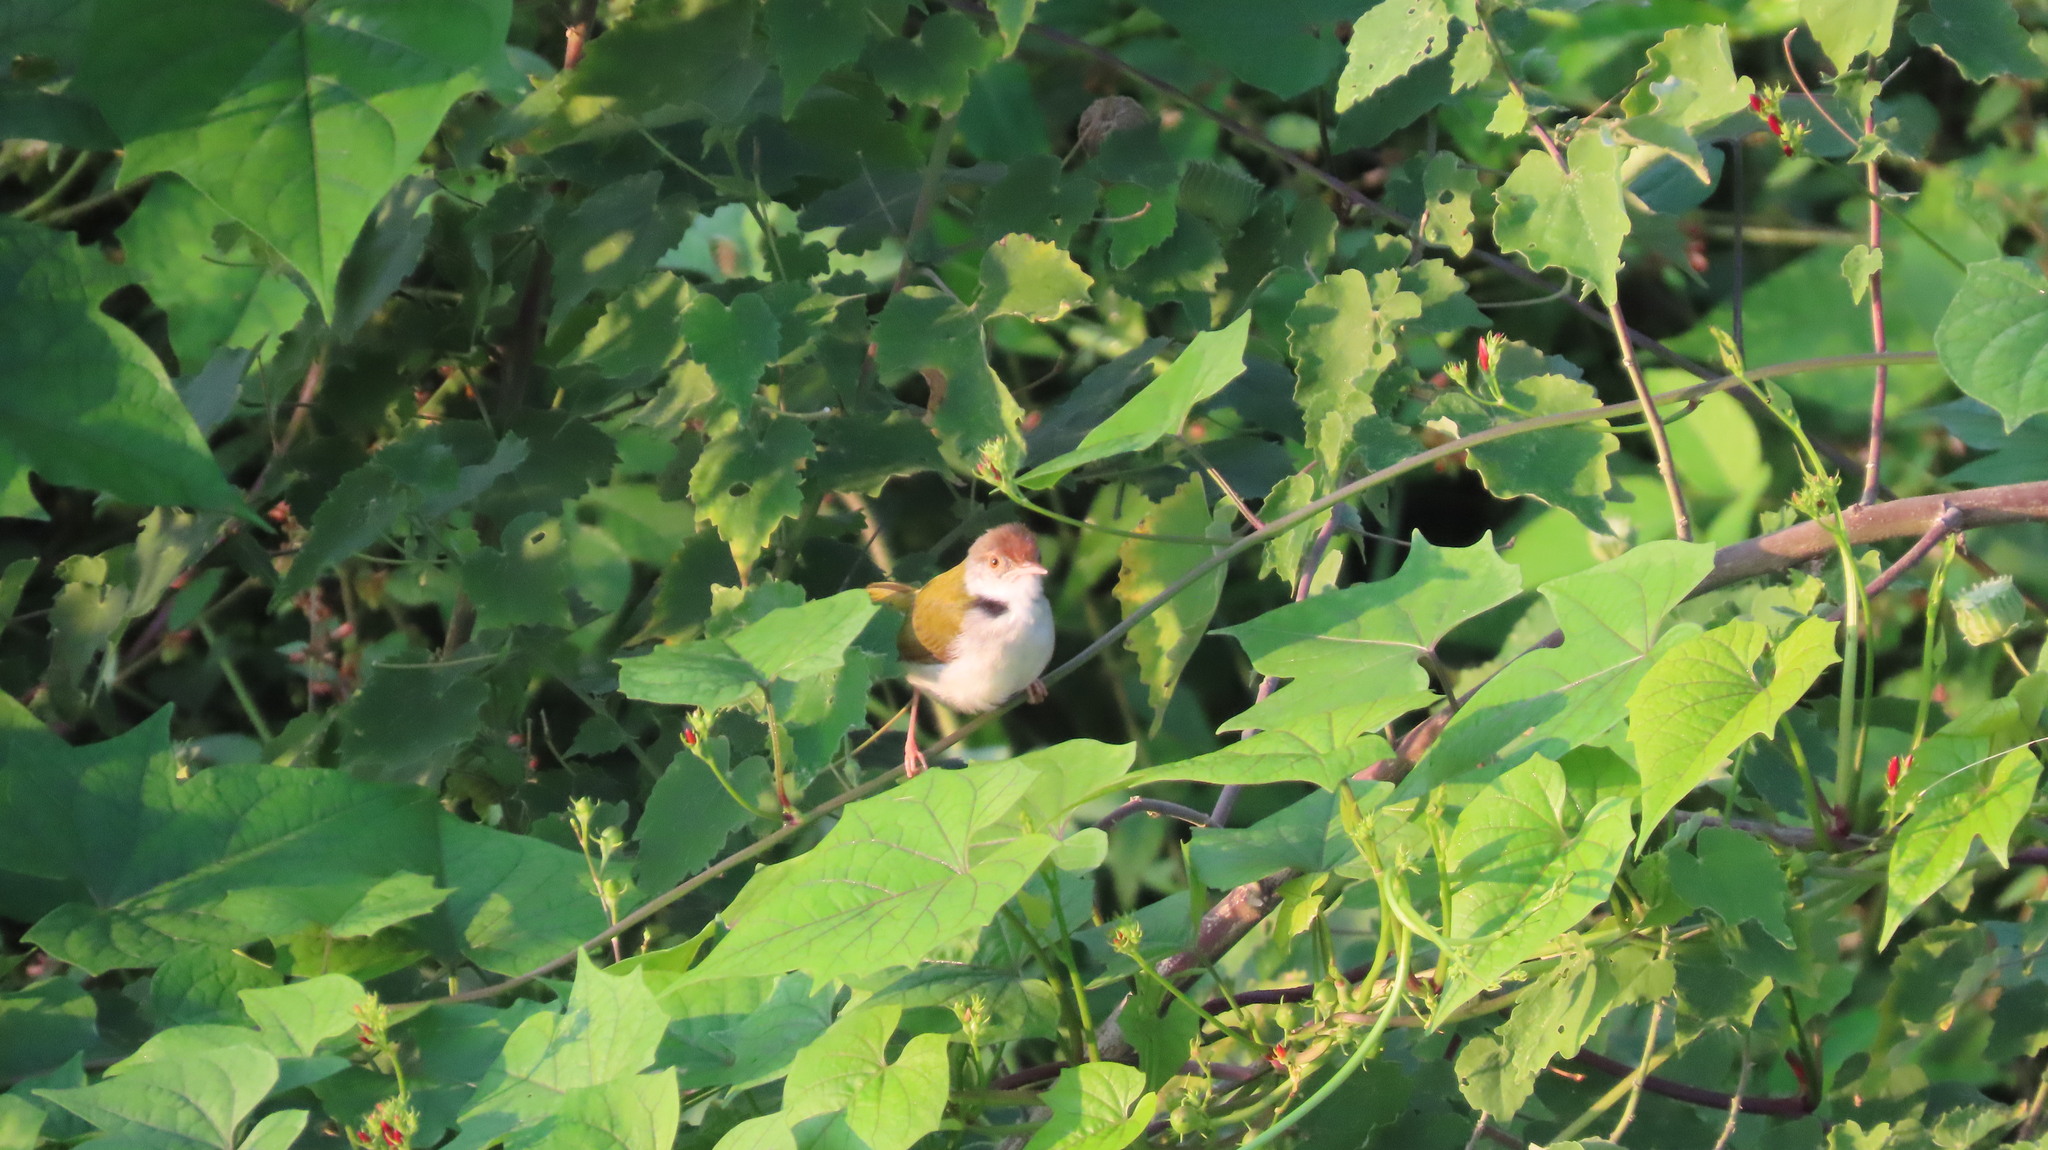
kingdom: Animalia
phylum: Chordata
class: Aves
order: Passeriformes
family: Cisticolidae
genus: Orthotomus
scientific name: Orthotomus sutorius
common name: Common tailorbird
